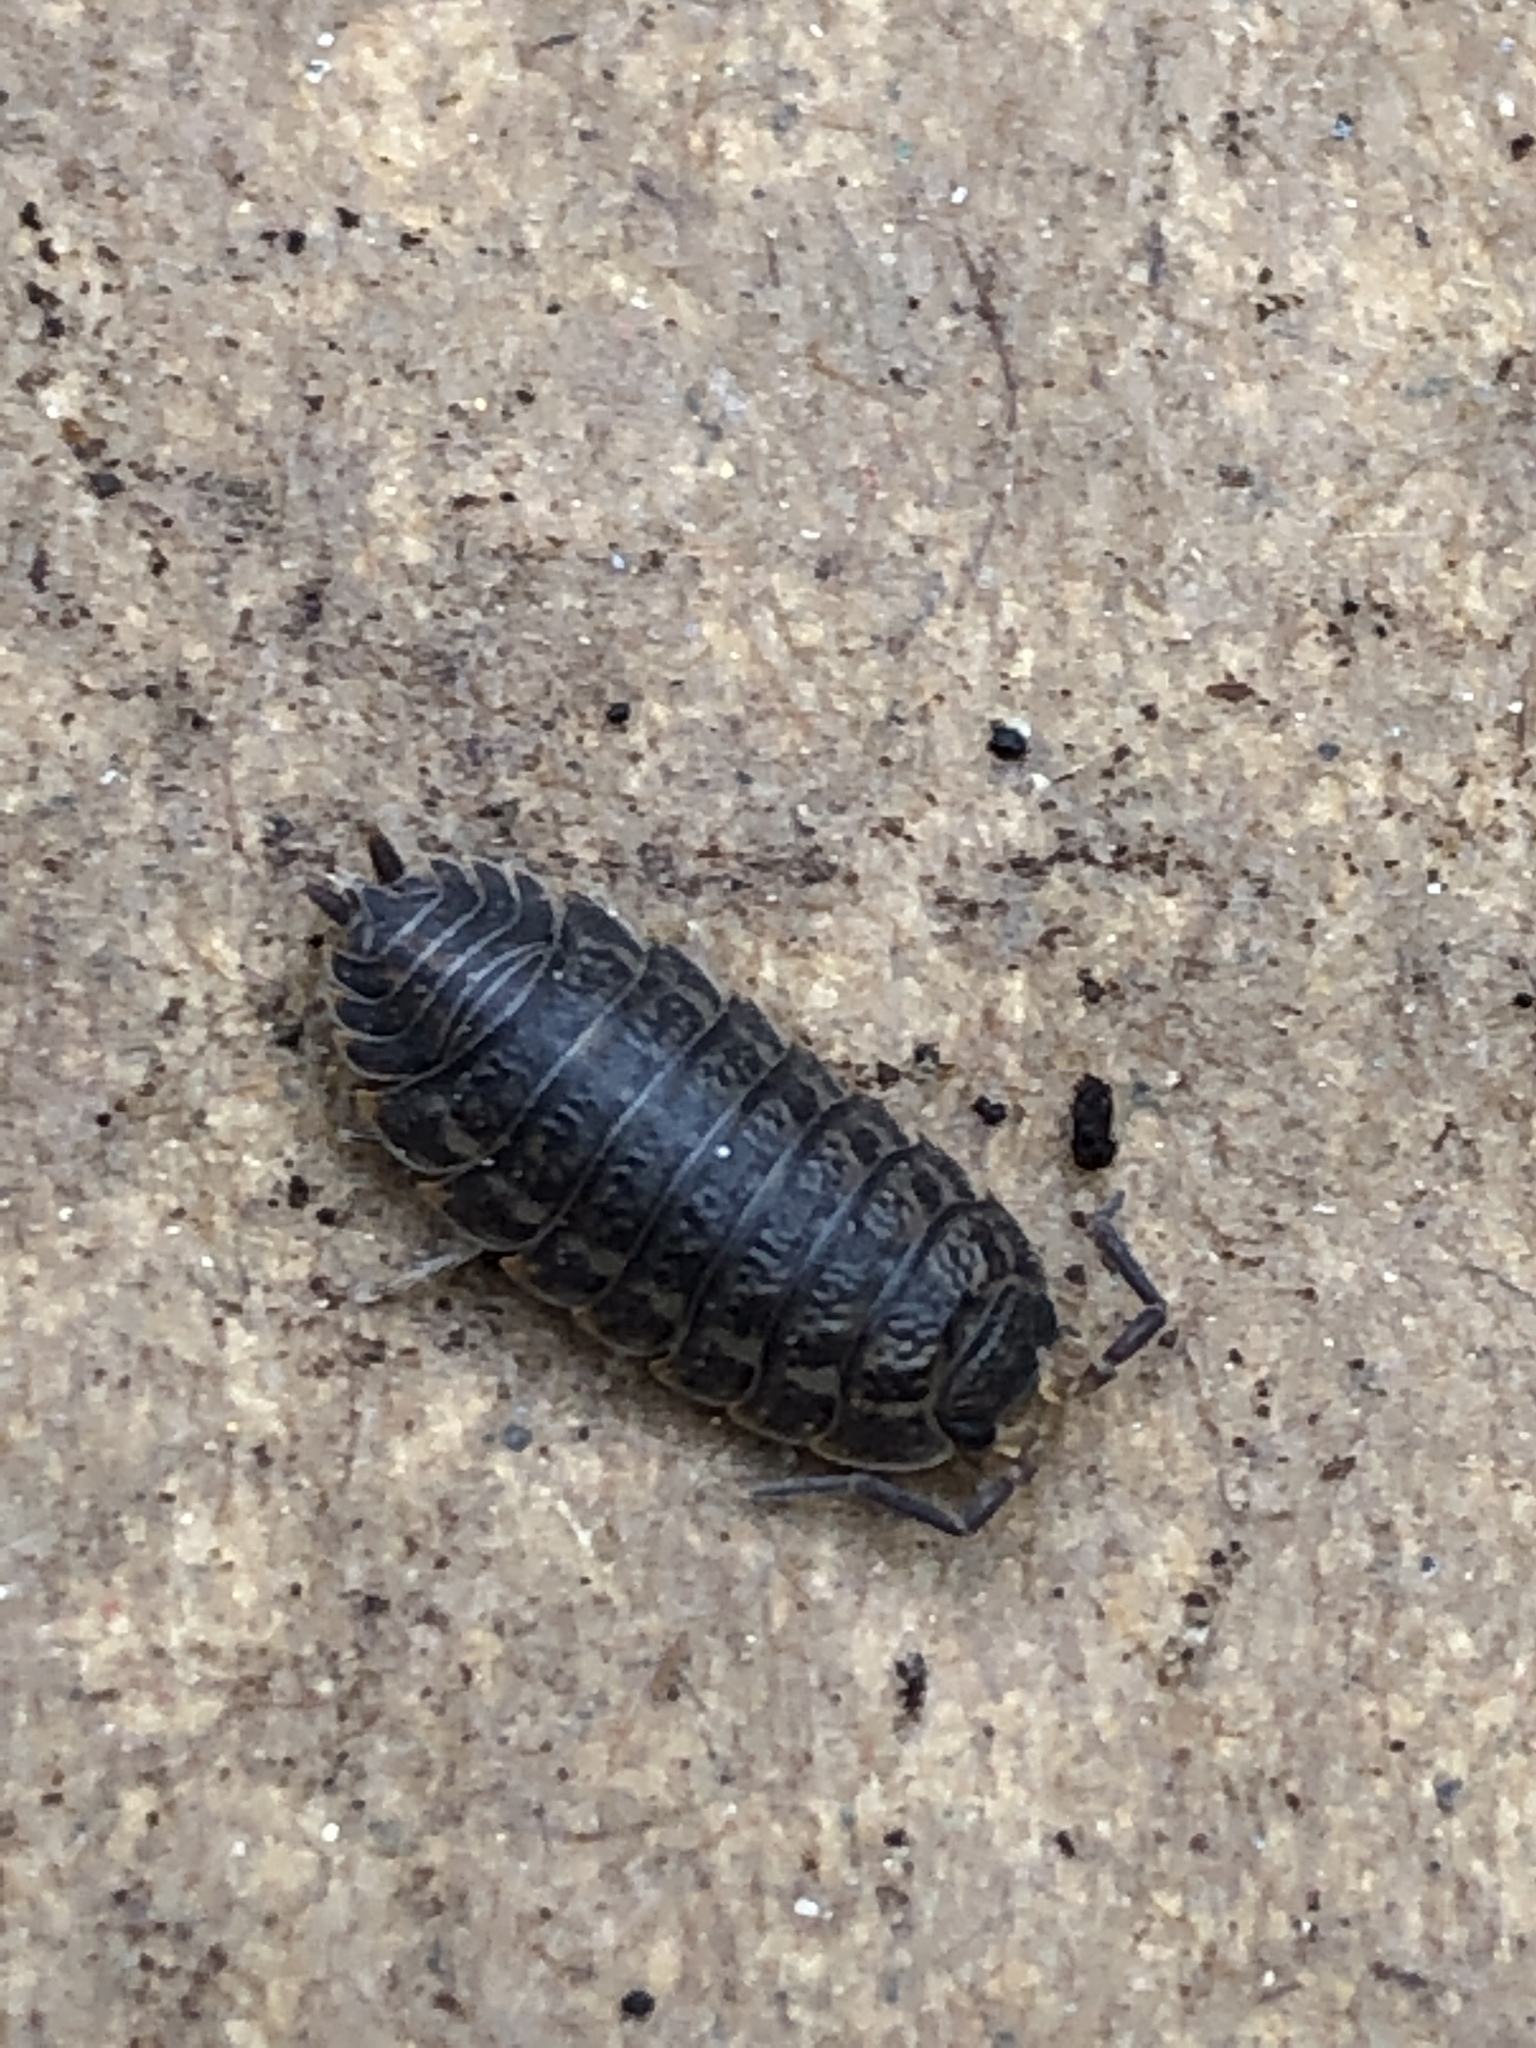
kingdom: Animalia
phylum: Arthropoda
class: Malacostraca
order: Isopoda
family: Trachelipodidae
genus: Trachelipus
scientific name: Trachelipus rathkii
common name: Isopod
